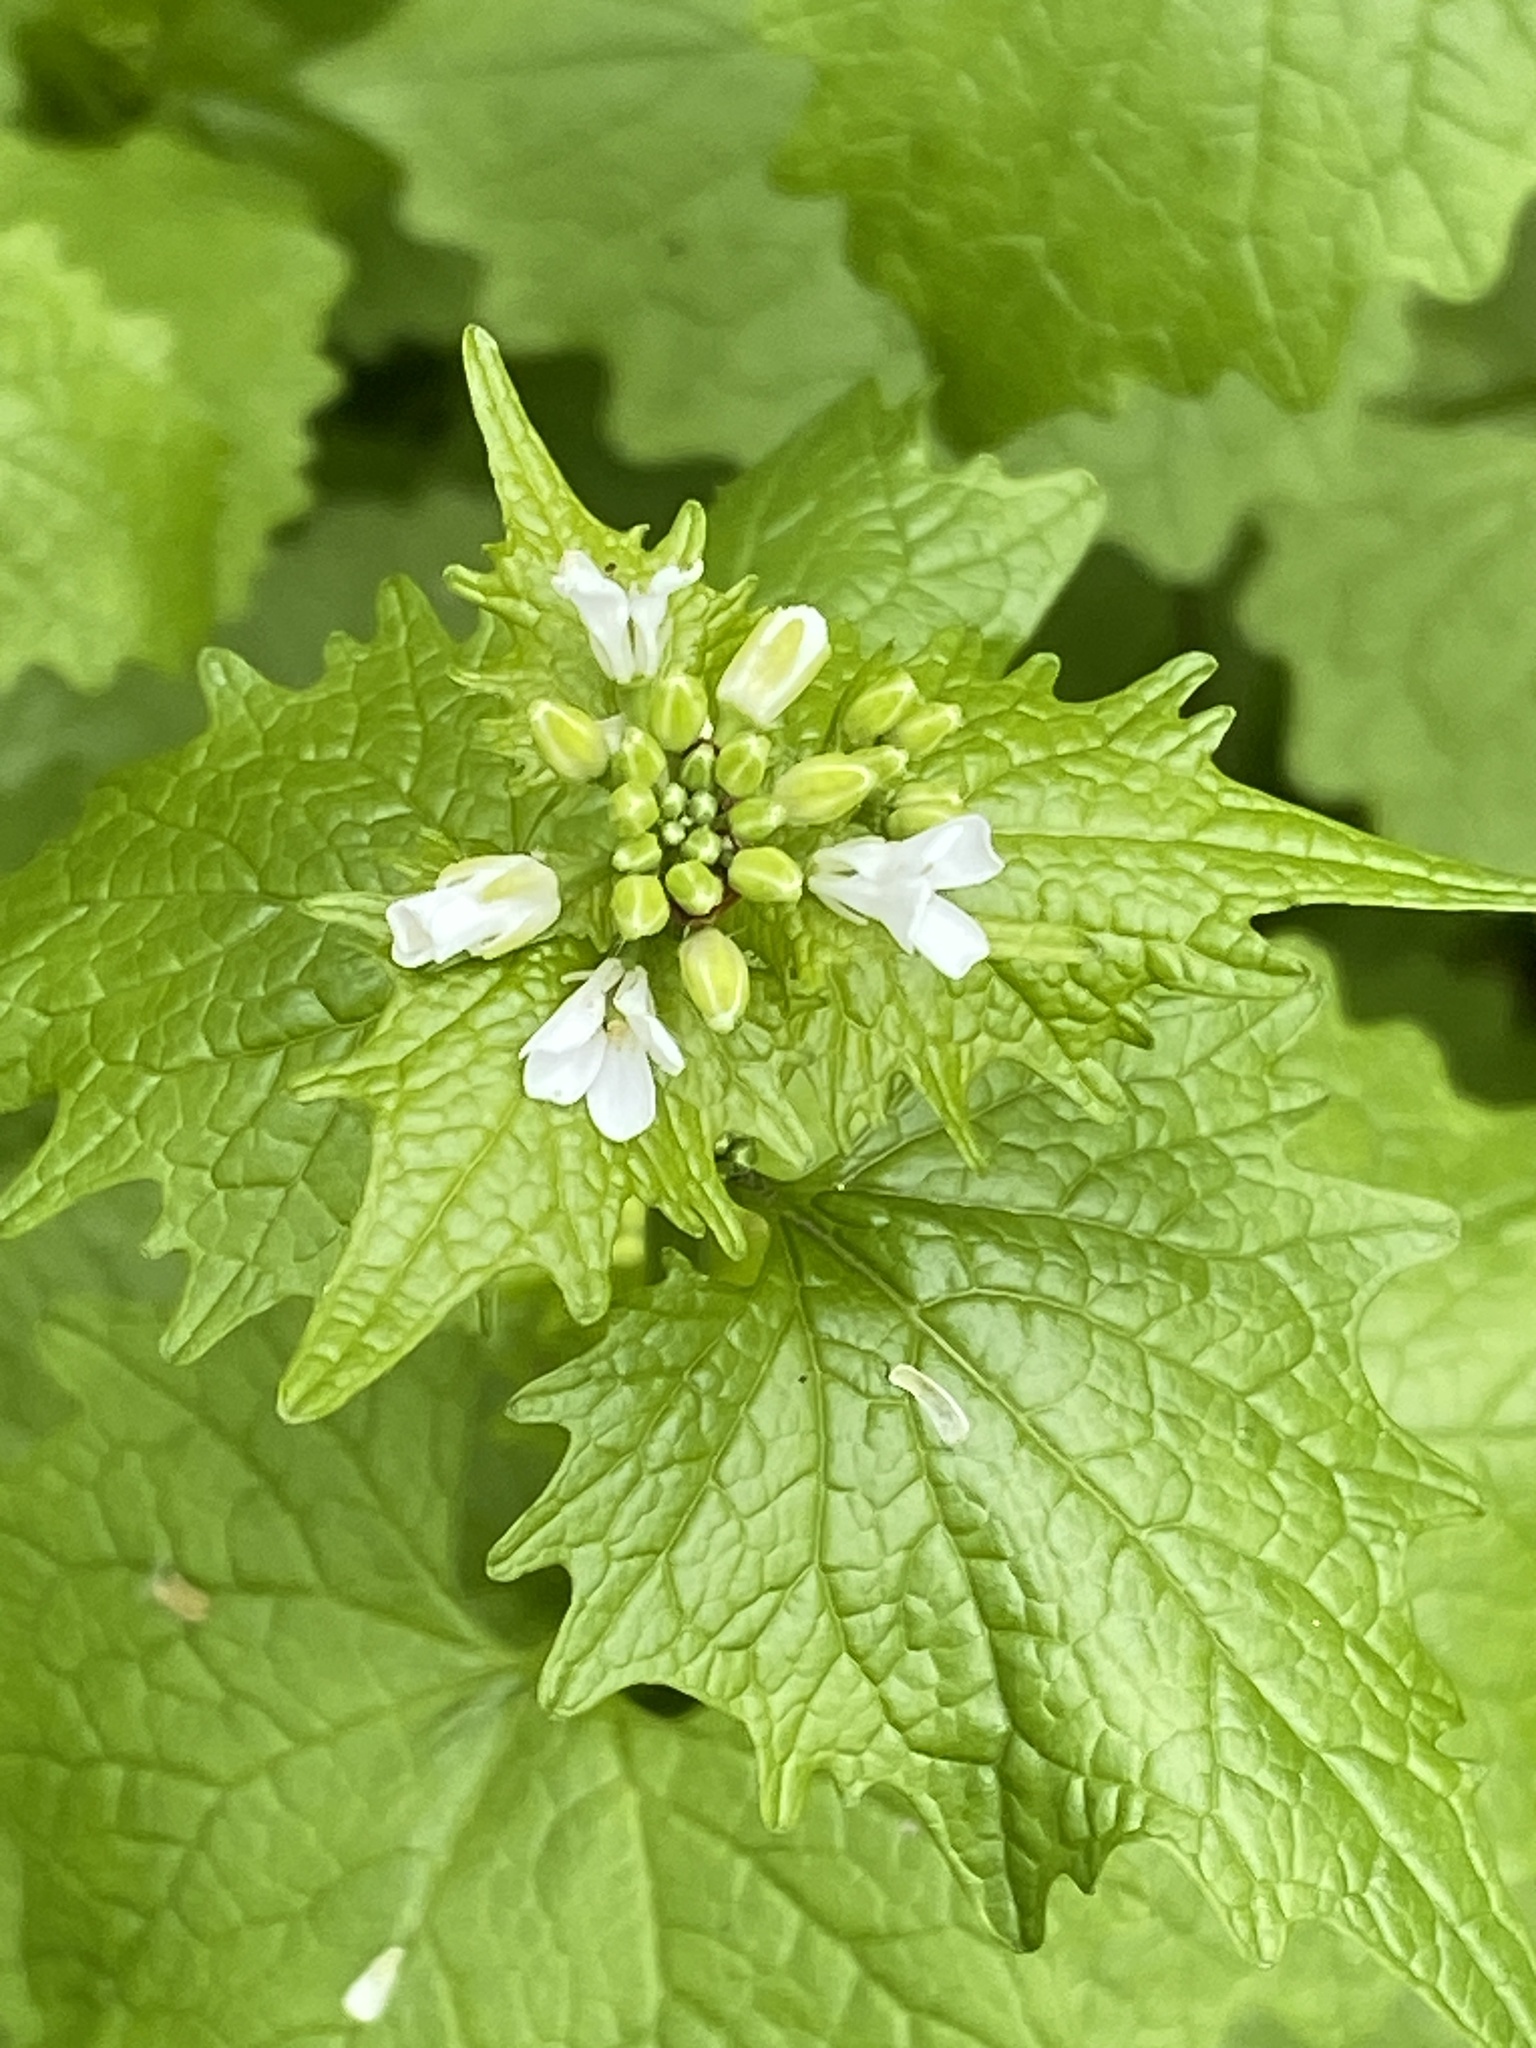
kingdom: Plantae
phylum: Tracheophyta
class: Magnoliopsida
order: Brassicales
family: Brassicaceae
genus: Alliaria
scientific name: Alliaria petiolata
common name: Garlic mustard
